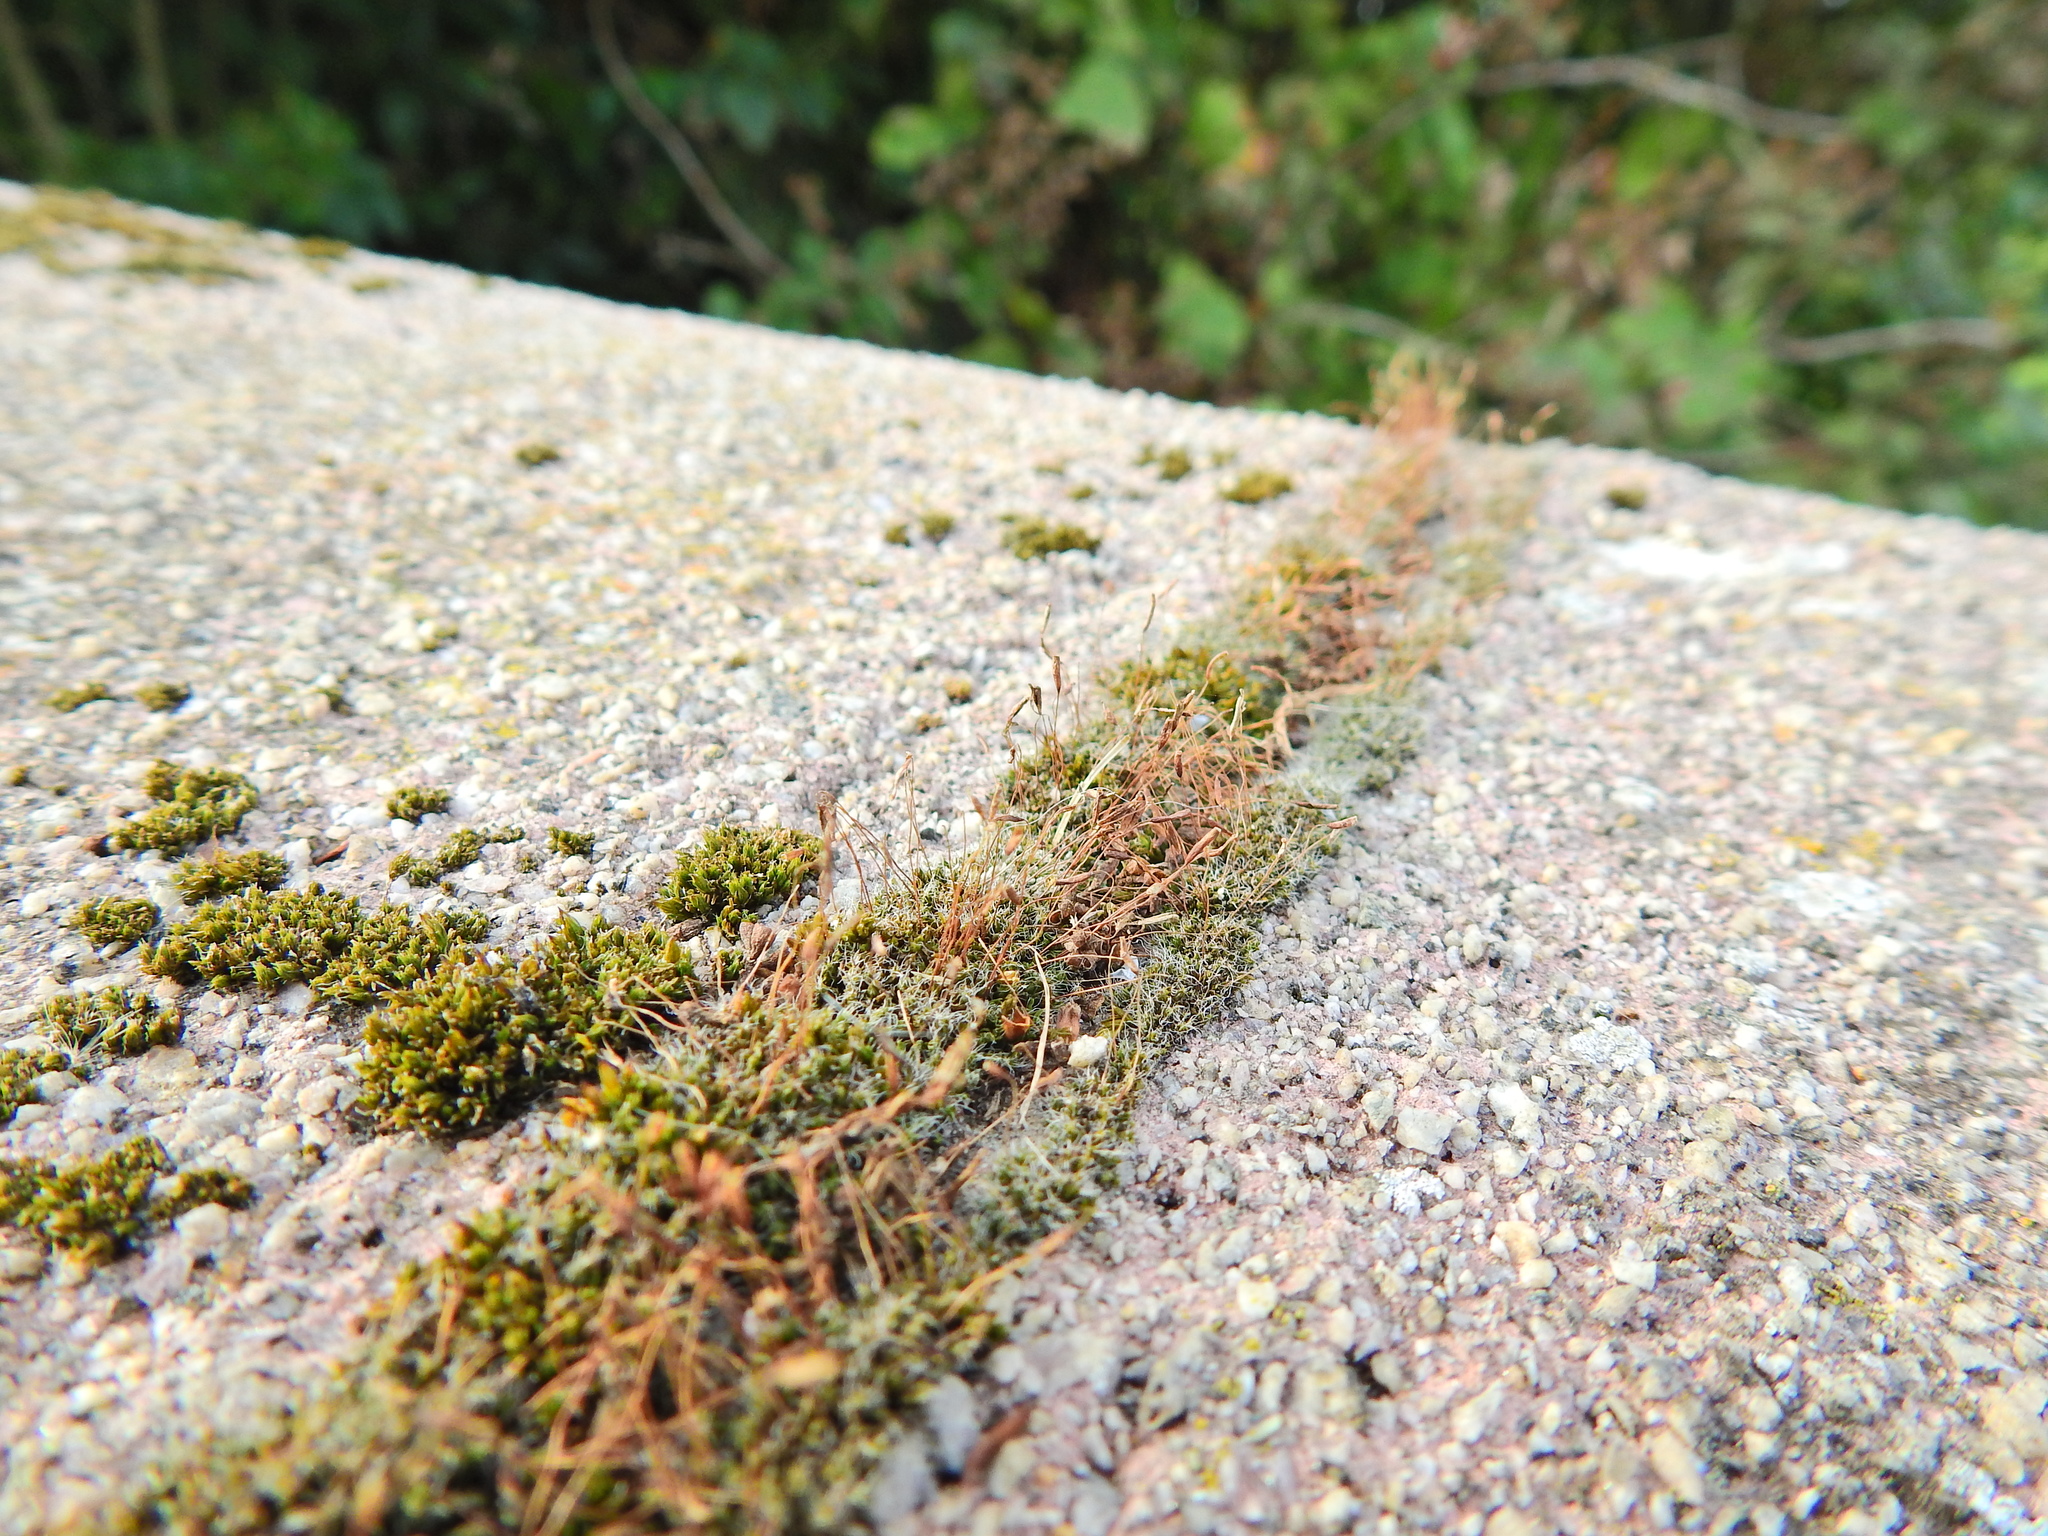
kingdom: Plantae
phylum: Bryophyta
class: Bryopsida
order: Pottiales
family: Pottiaceae
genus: Tortula
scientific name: Tortula muralis
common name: Wall screw-moss
